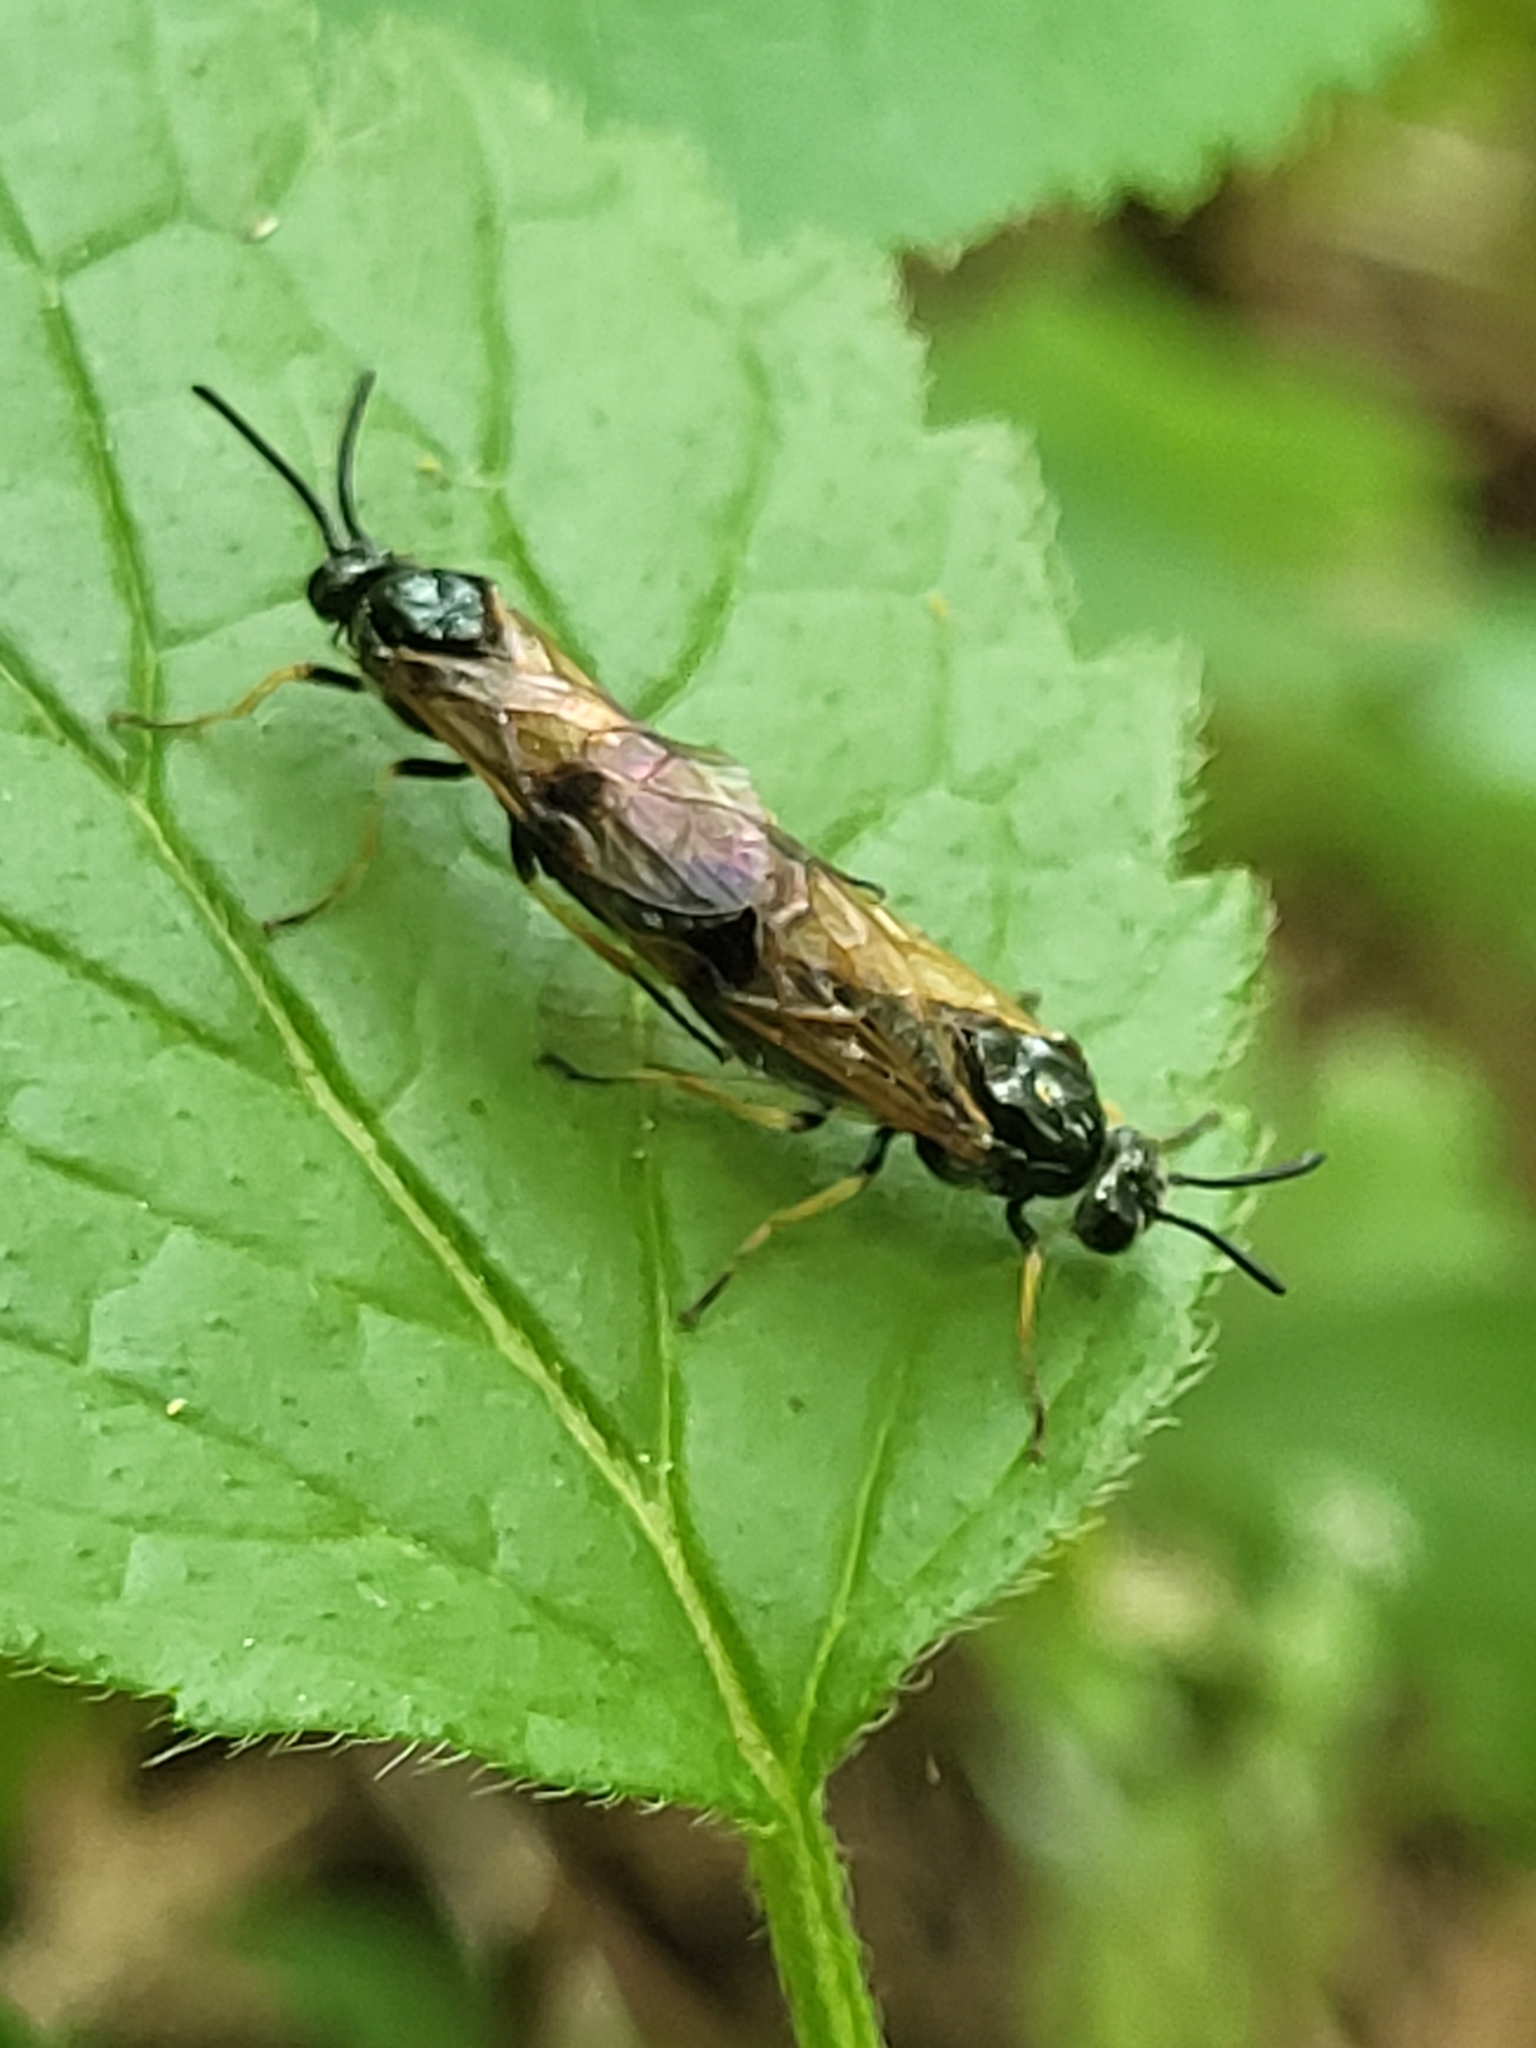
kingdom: Animalia
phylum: Arthropoda
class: Insecta
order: Hymenoptera
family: Argidae
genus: Arge
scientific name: Arge ustulata
